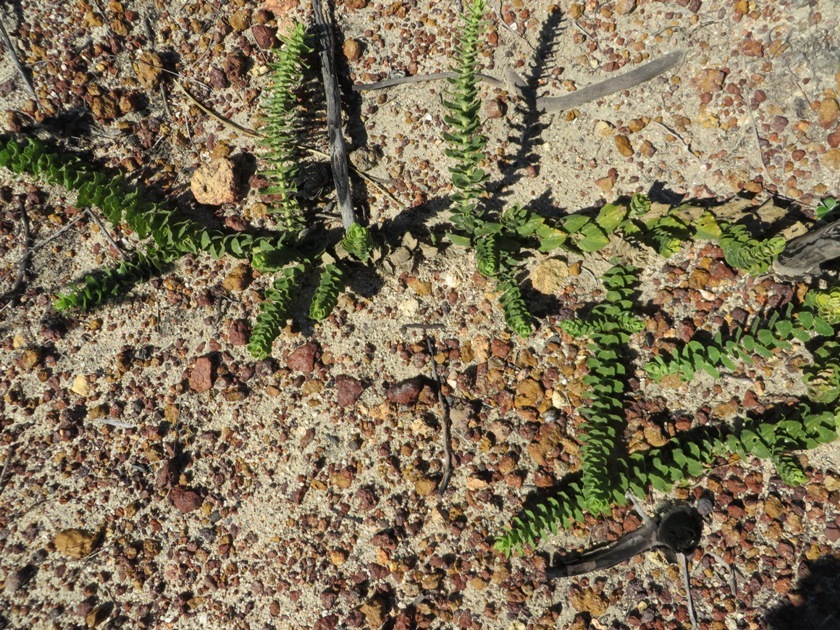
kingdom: Plantae
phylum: Tracheophyta
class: Magnoliopsida
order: Lamiales
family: Scrophulariaceae
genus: Oftia
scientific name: Oftia africana
